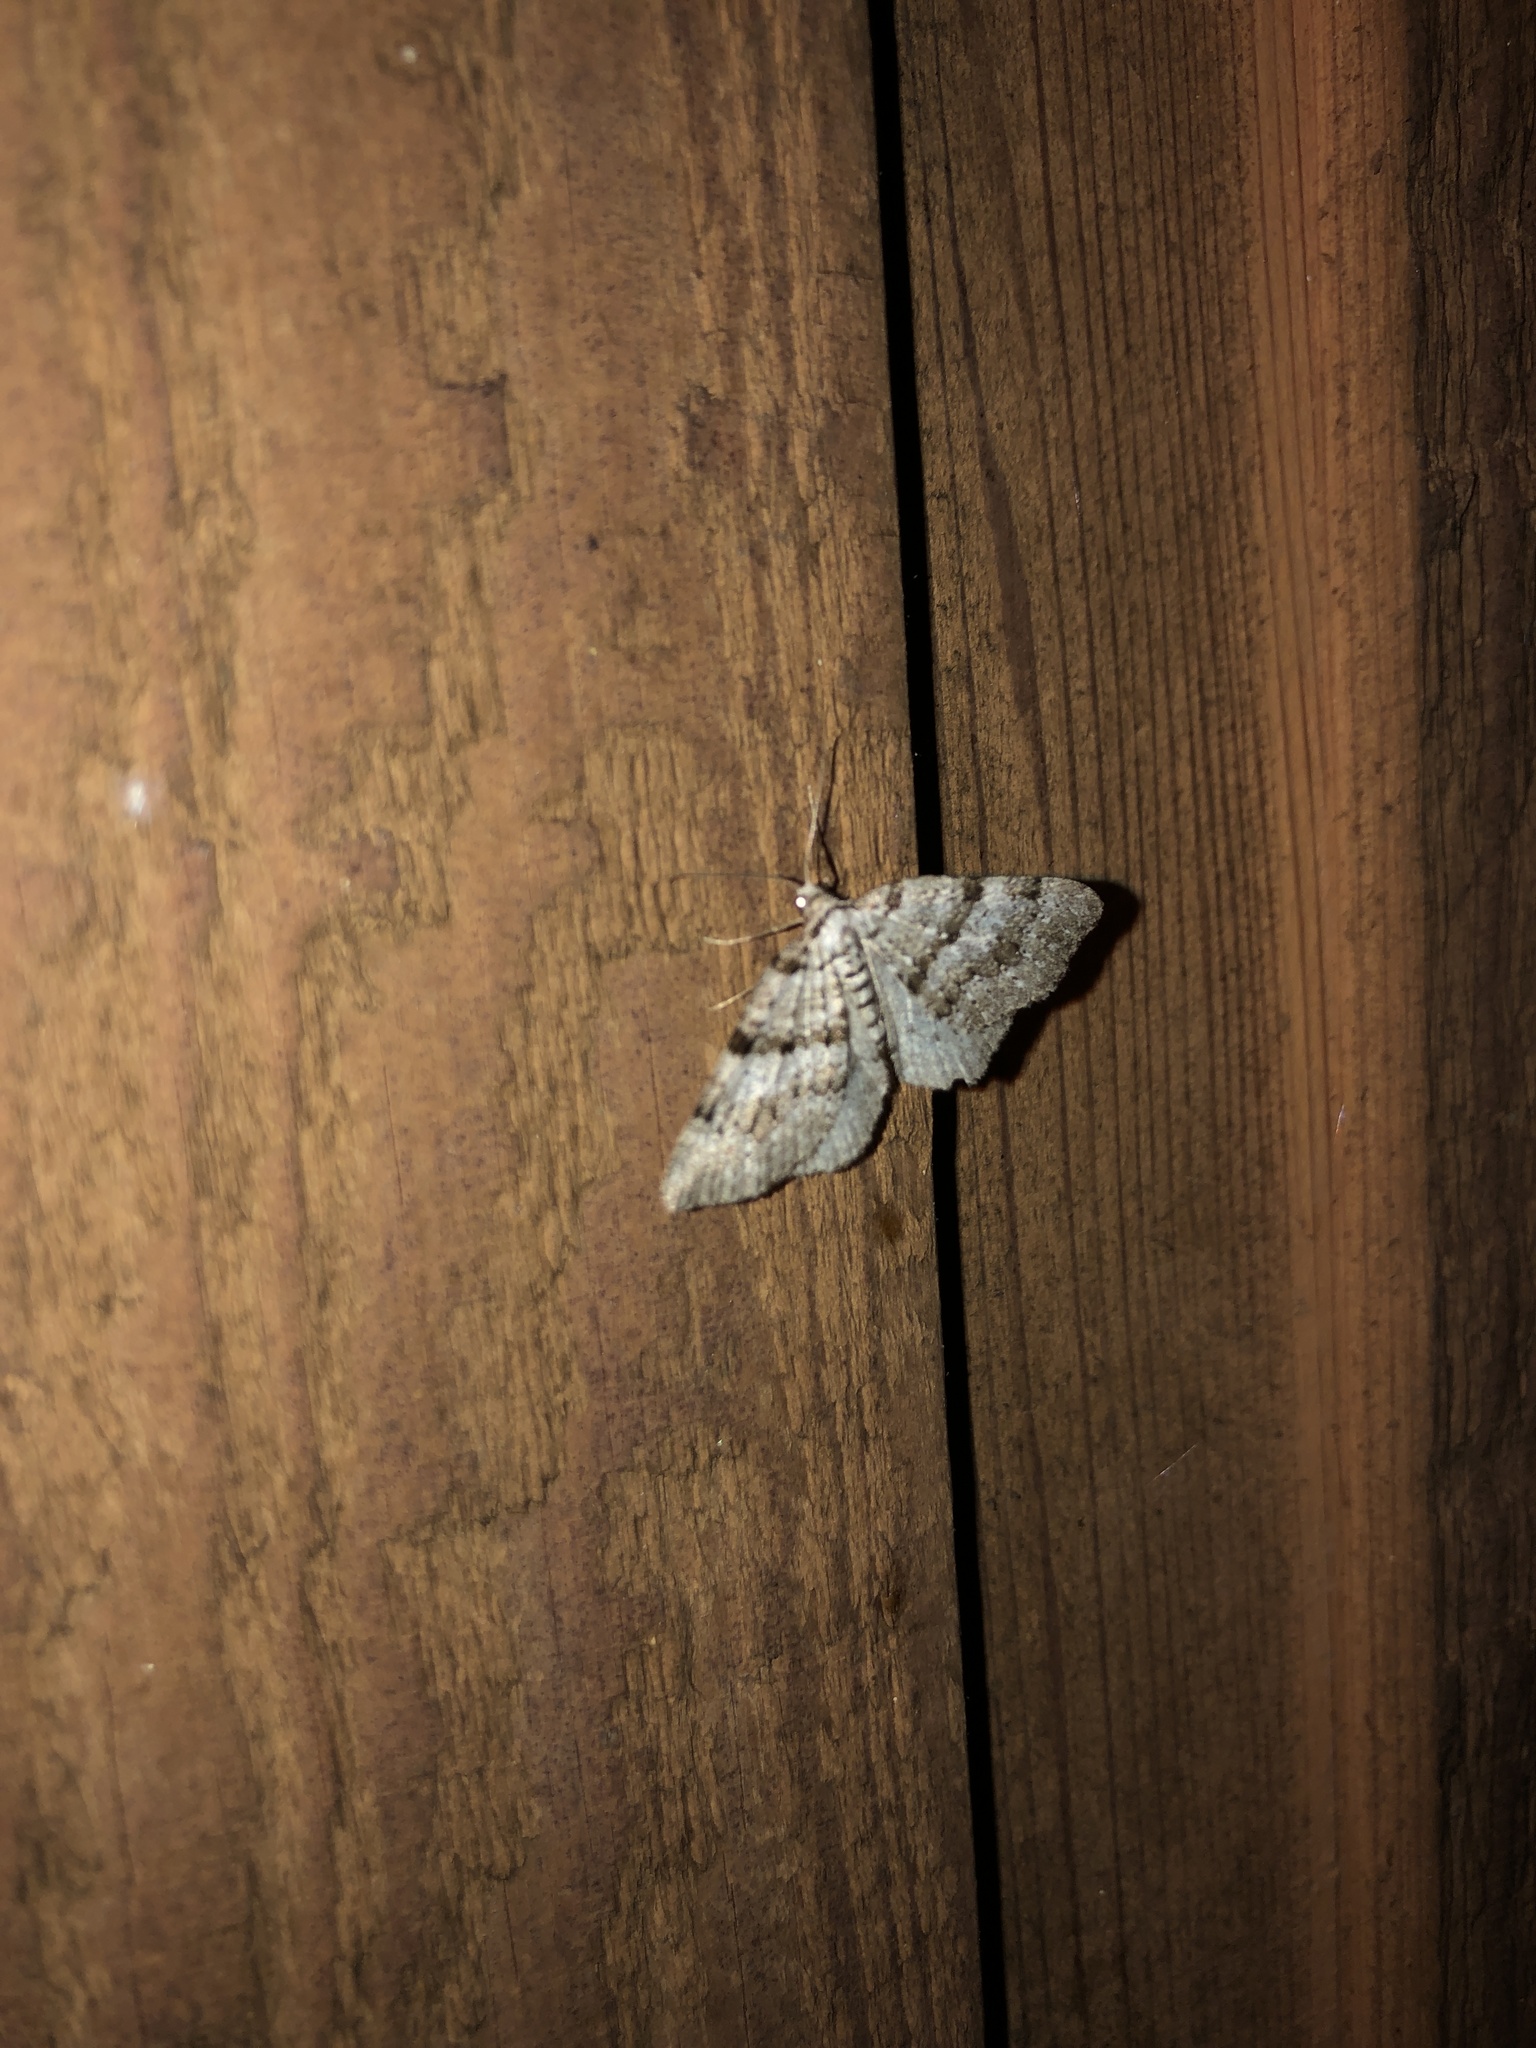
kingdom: Animalia
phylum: Arthropoda
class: Insecta
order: Lepidoptera
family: Geometridae
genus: Perizoma
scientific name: Perizoma curvilinea
